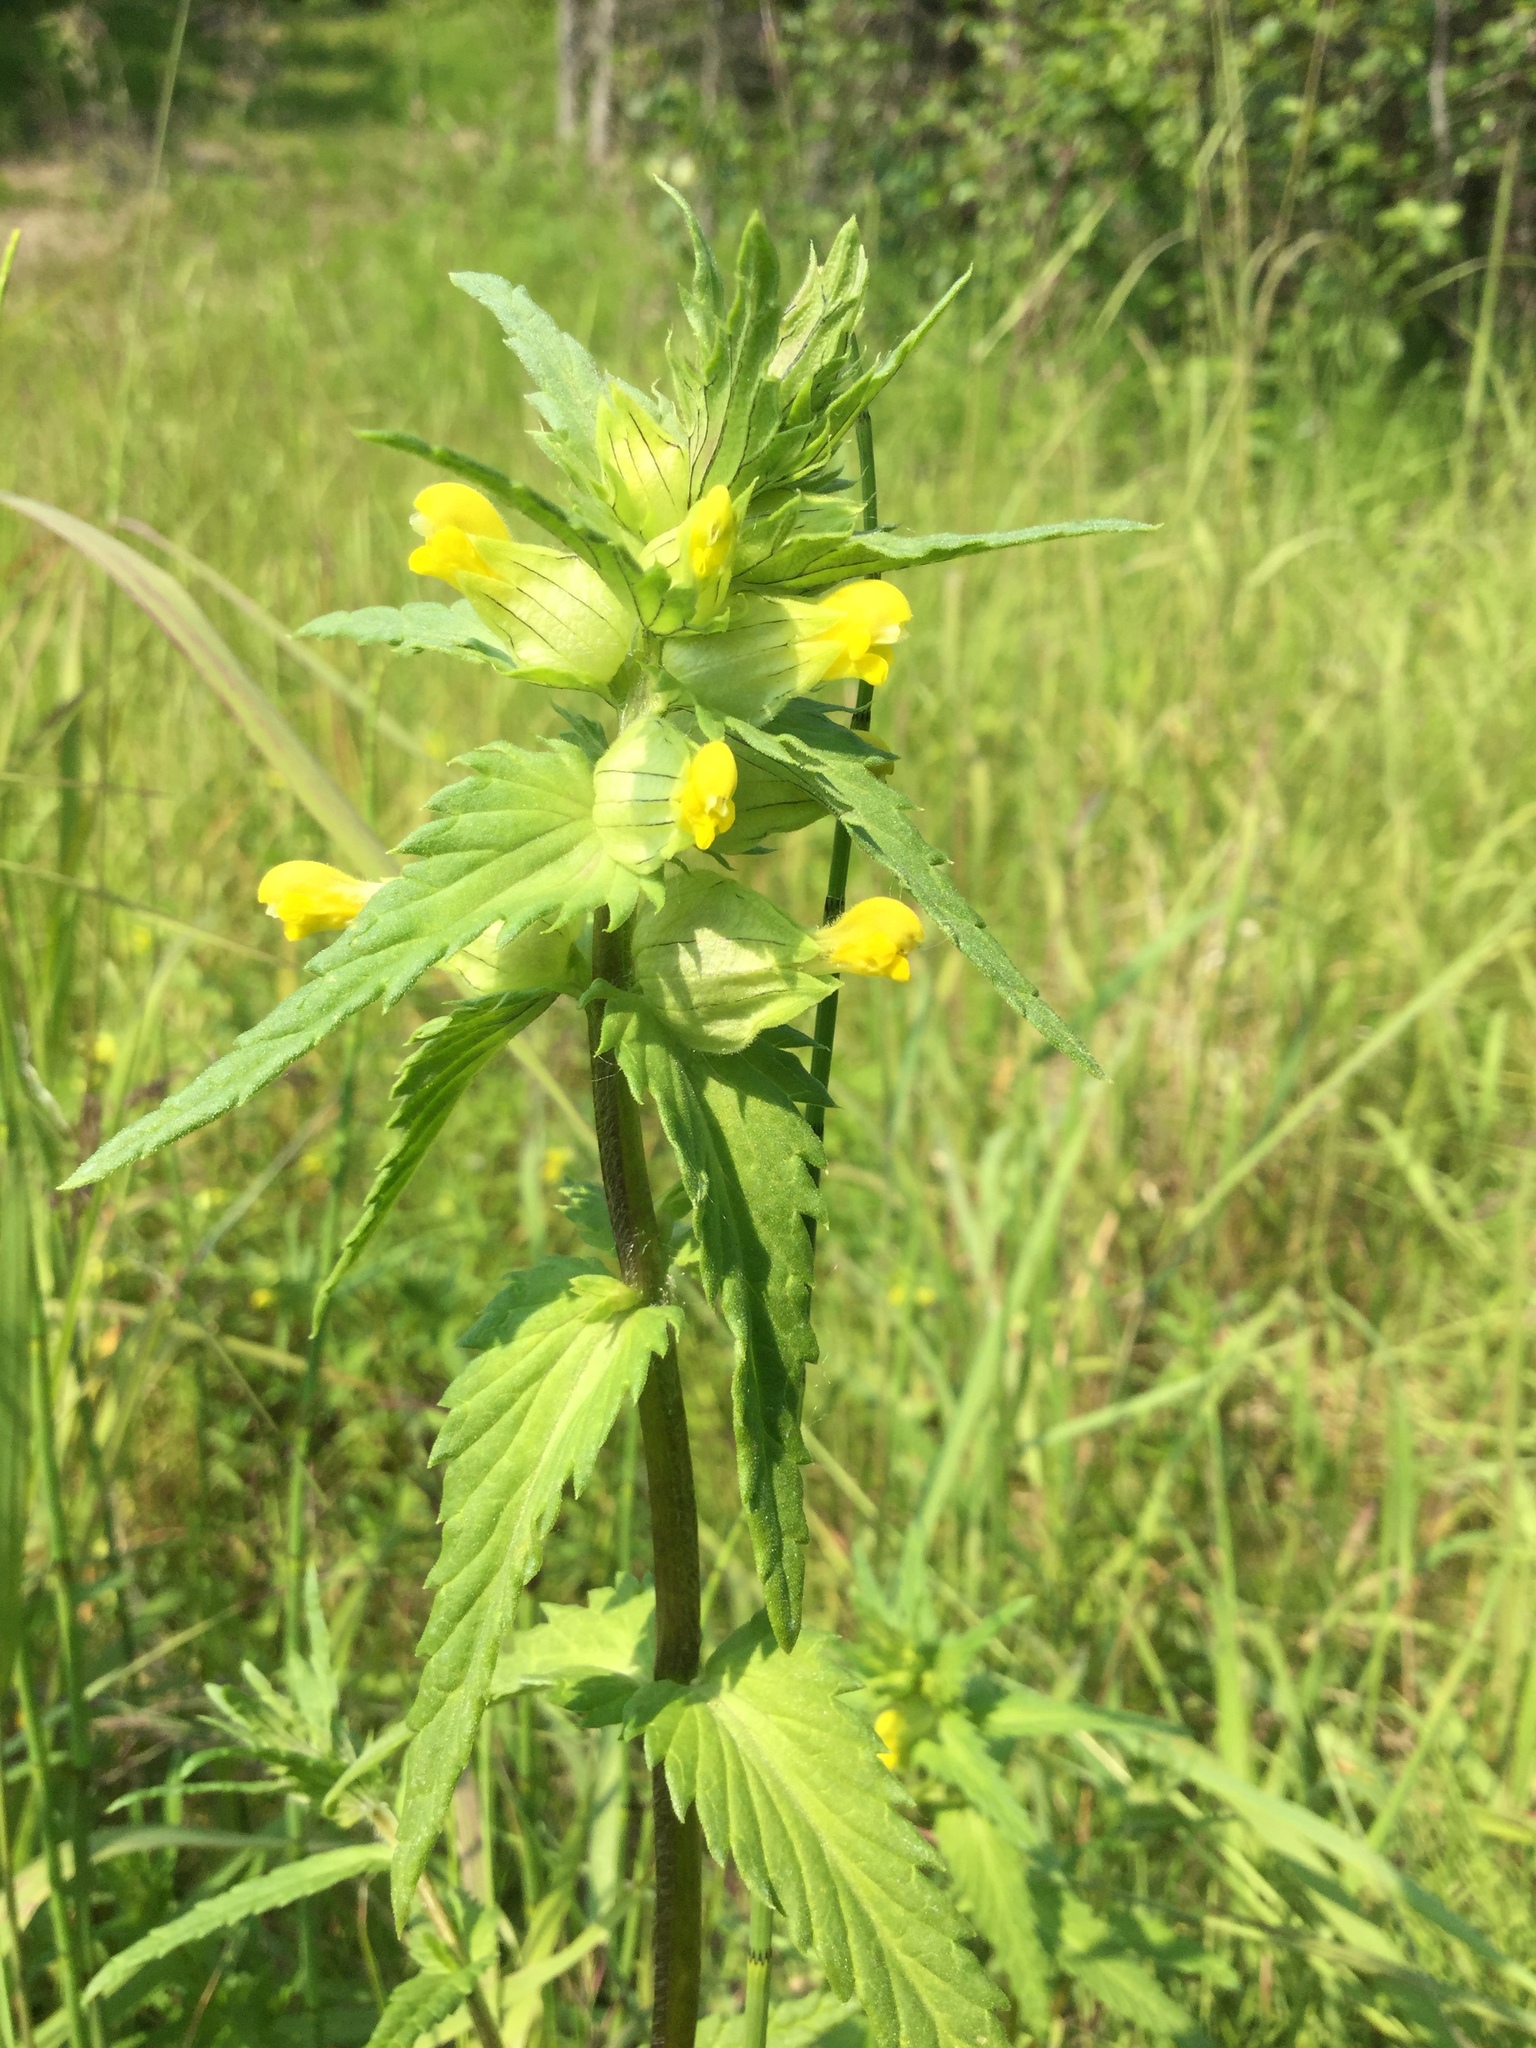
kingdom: Plantae
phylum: Tracheophyta
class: Magnoliopsida
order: Lamiales
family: Orobanchaceae
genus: Rhinanthus
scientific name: Rhinanthus minor
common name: Yellow-rattle
